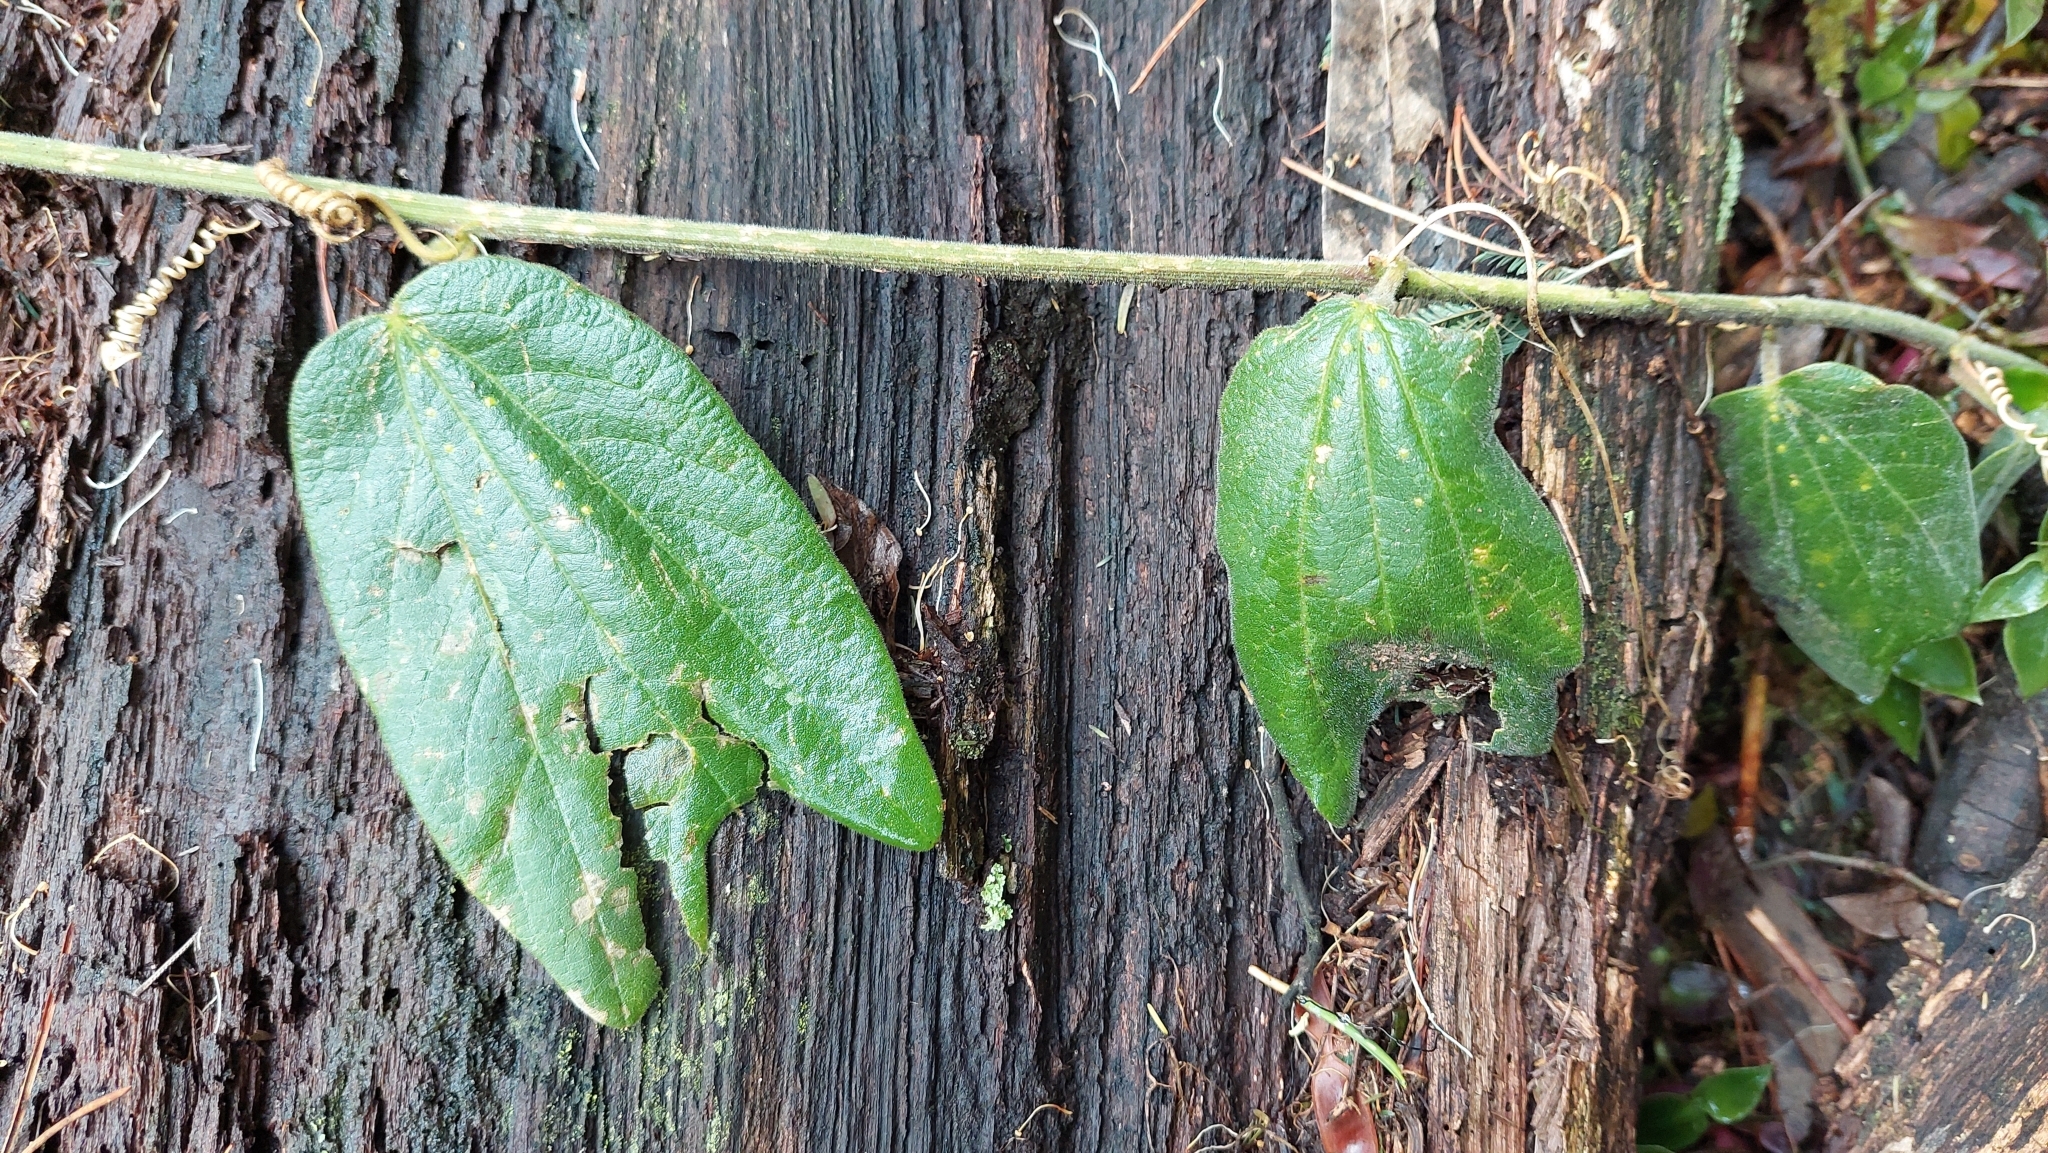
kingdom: Plantae
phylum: Tracheophyta
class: Magnoliopsida
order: Malpighiales
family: Passifloraceae
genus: Passiflora
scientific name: Passiflora bogotensis
